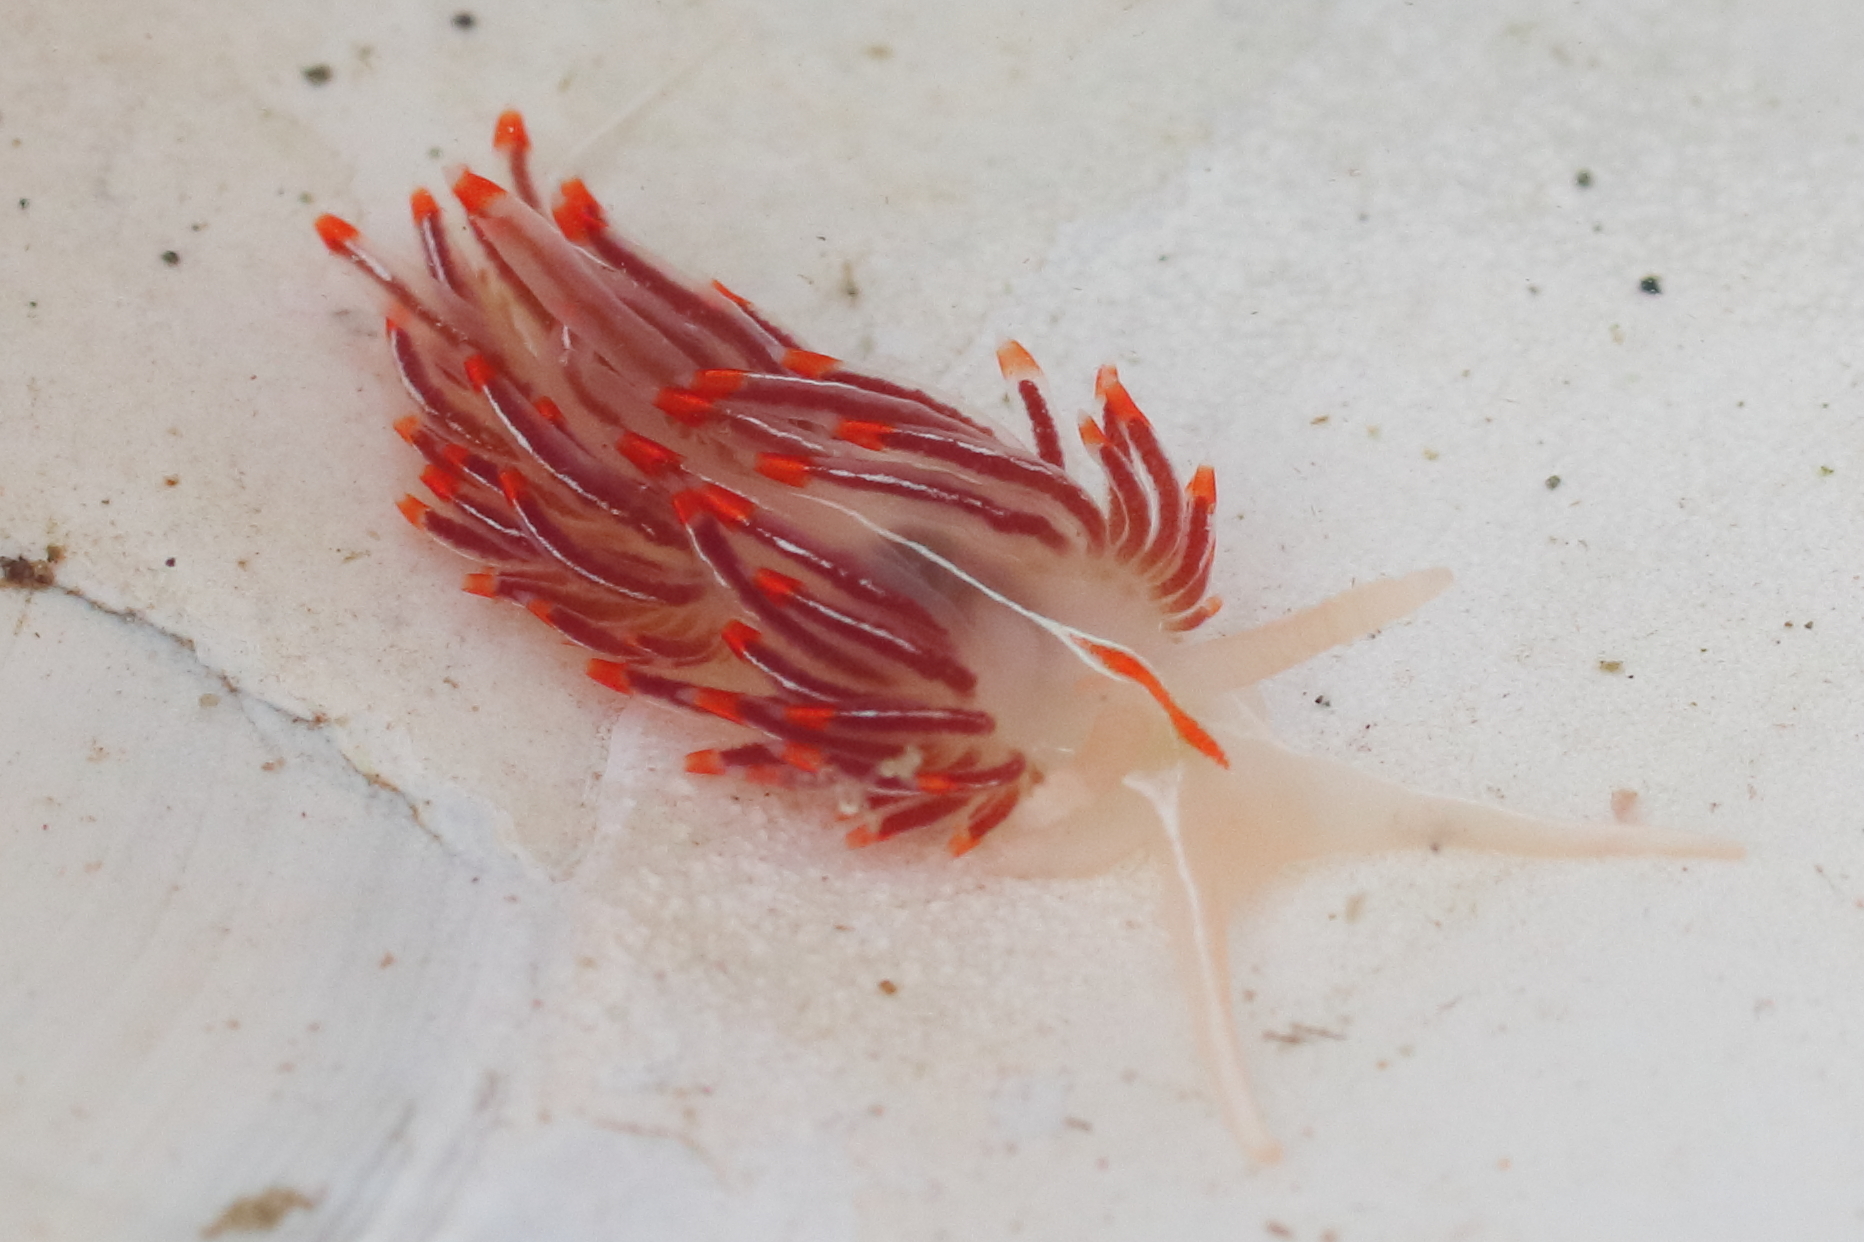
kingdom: Animalia
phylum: Mollusca
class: Gastropoda
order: Nudibranchia
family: Myrrhinidae
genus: Hermissenda
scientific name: Hermissenda crassicornis
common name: Hermissenda
